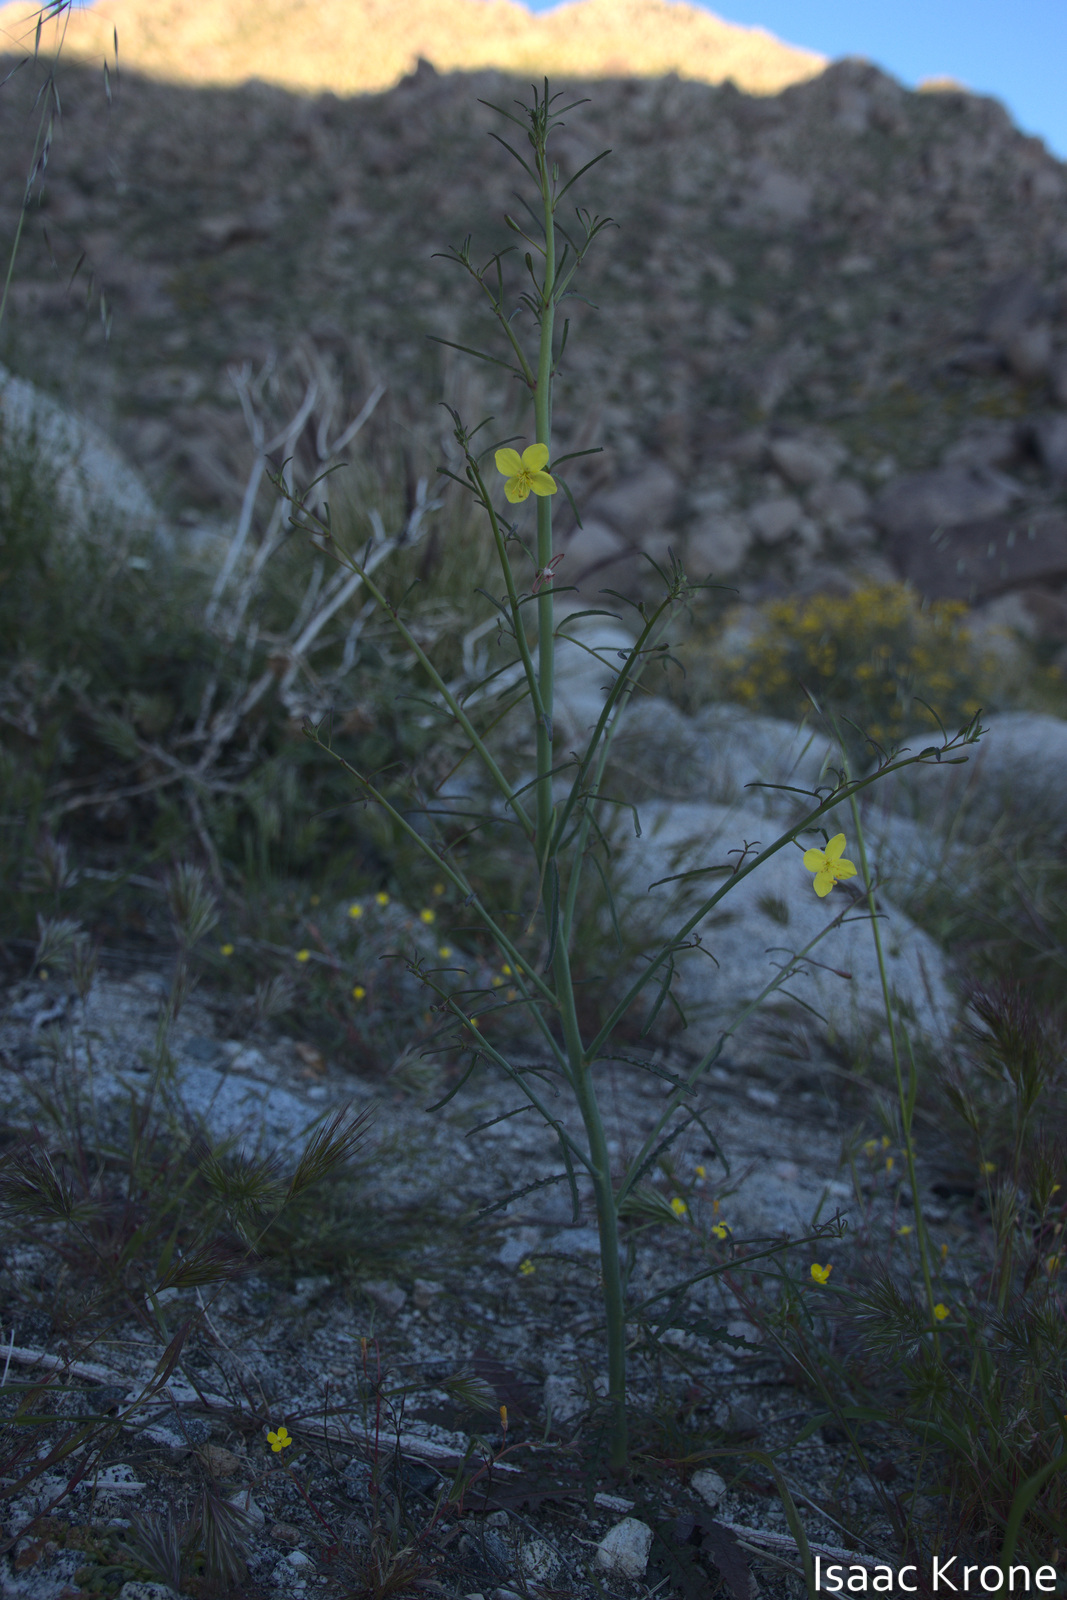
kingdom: Plantae
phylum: Tracheophyta
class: Magnoliopsida
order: Myrtales
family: Onagraceae
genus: Eulobus
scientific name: Eulobus californicus
